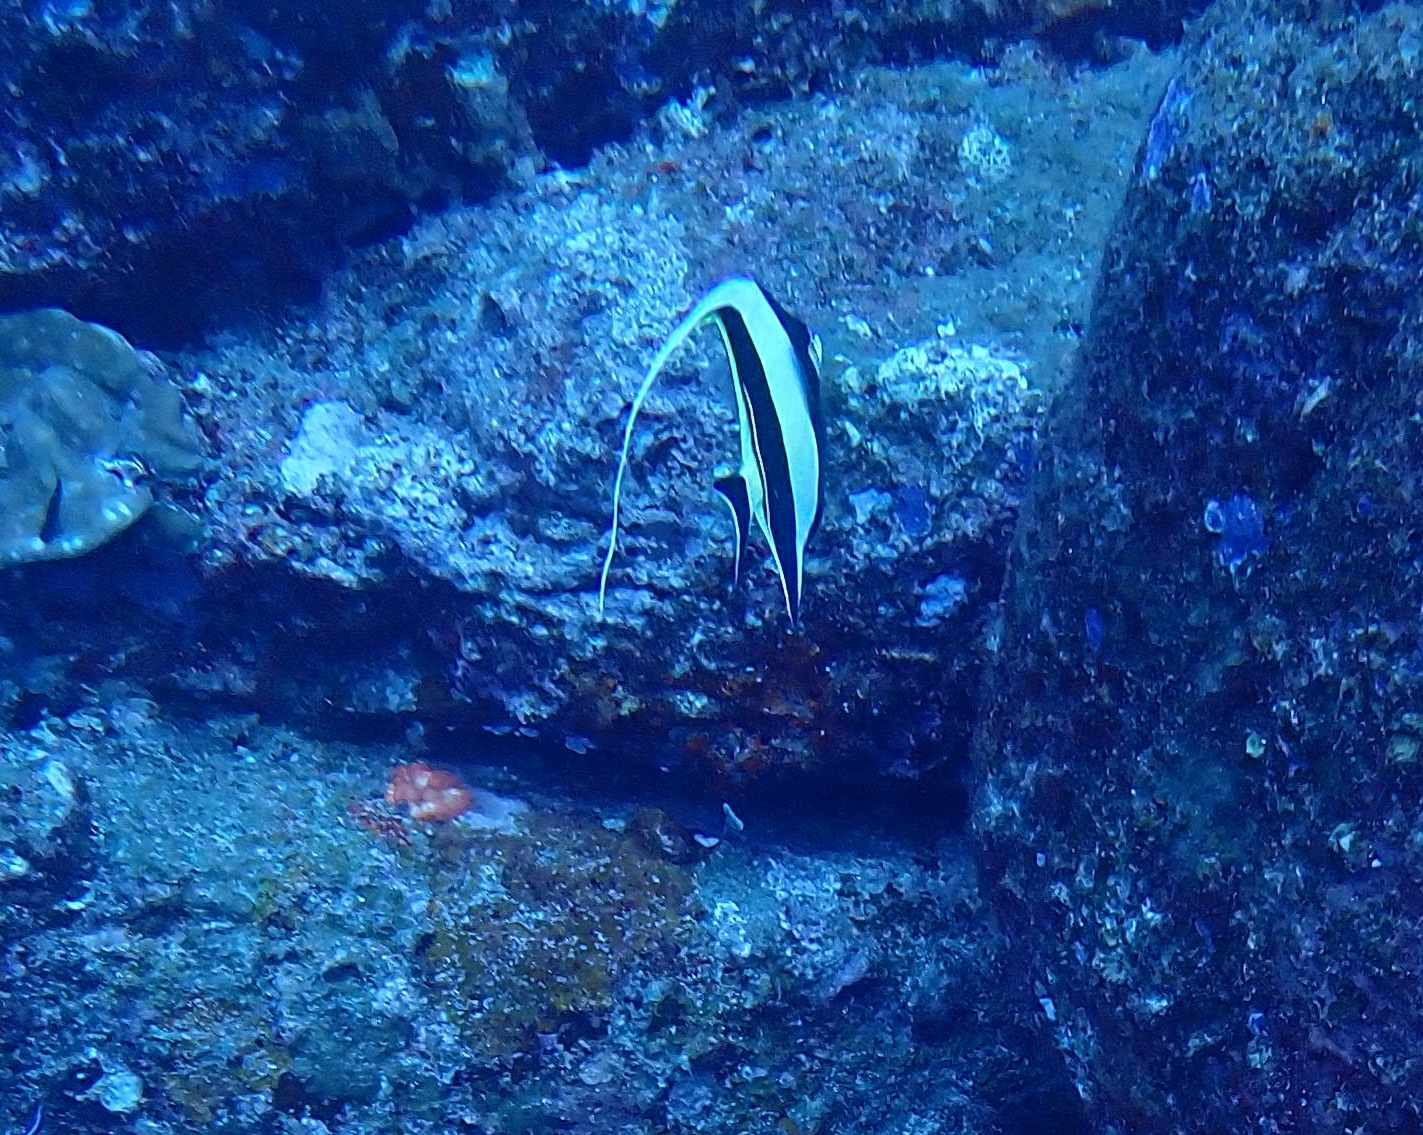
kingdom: Animalia
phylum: Chordata
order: Perciformes
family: Zanclidae
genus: Zanclus
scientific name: Zanclus cornutus
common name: Moorish idol
